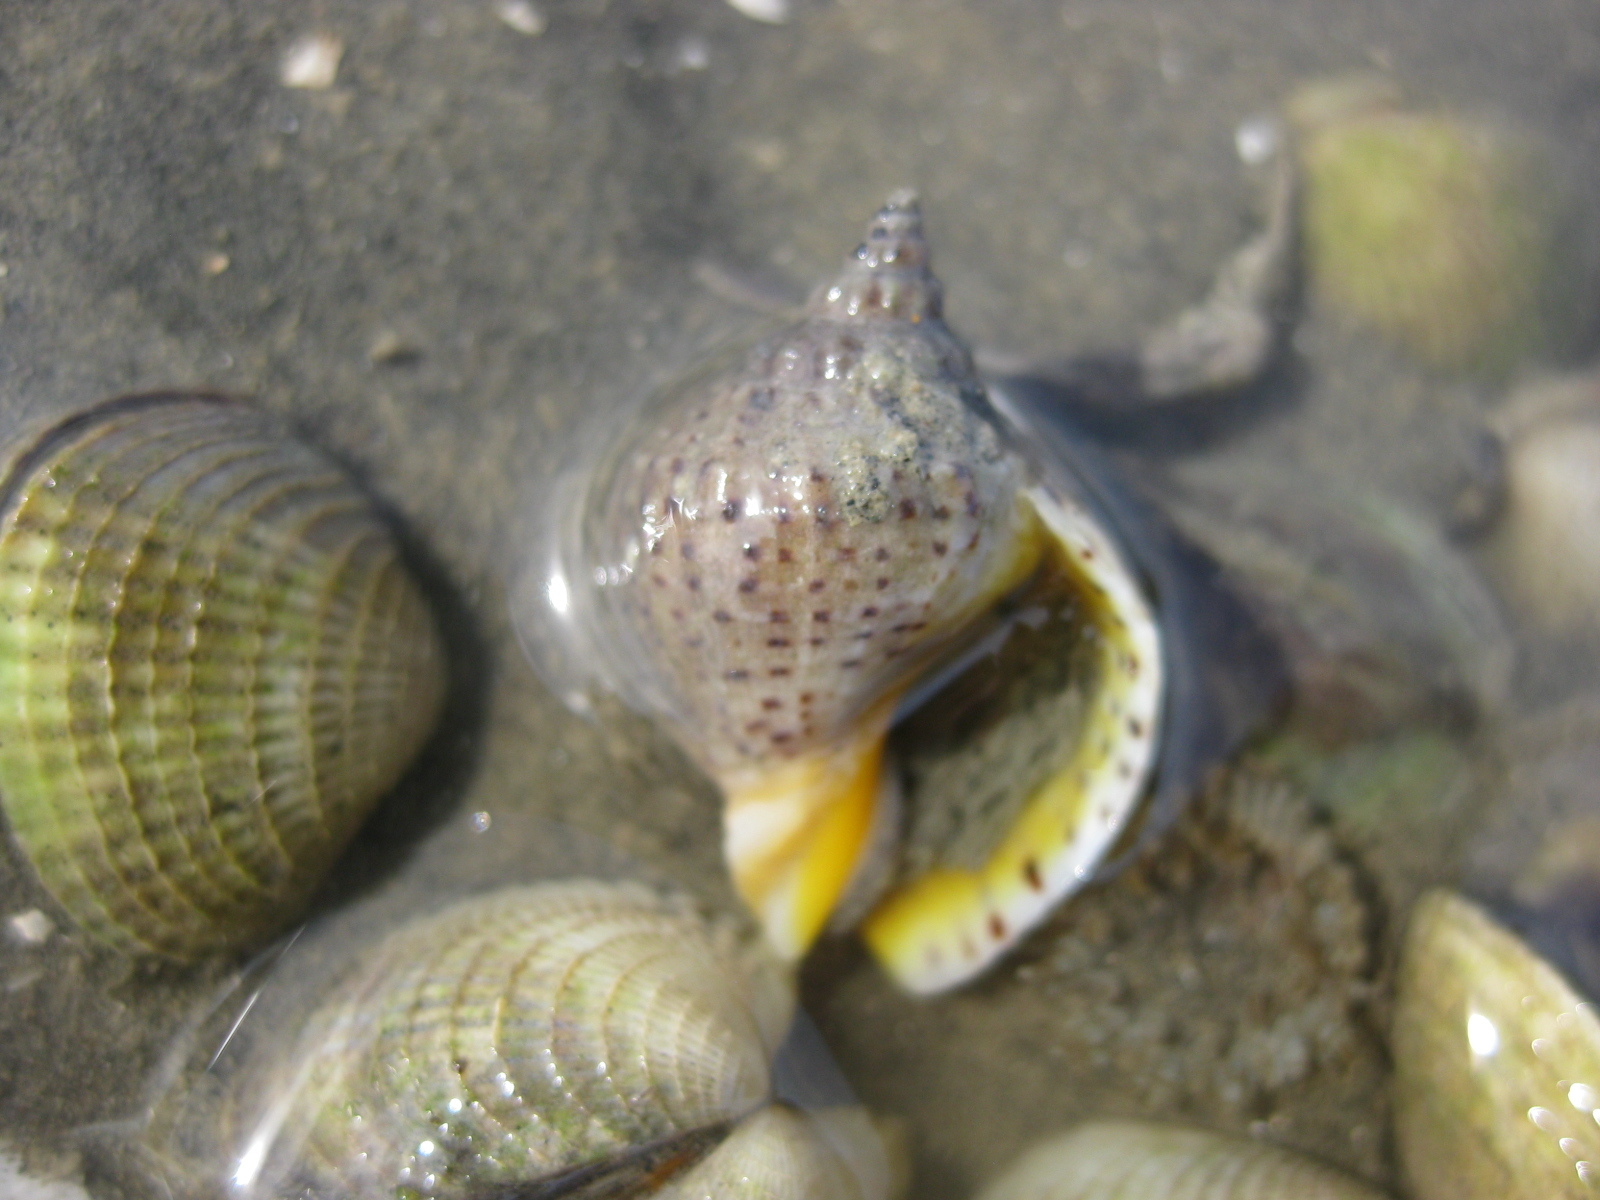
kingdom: Animalia
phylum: Mollusca
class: Gastropoda
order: Neogastropoda
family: Cominellidae
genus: Cominella
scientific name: Cominella adspersa
